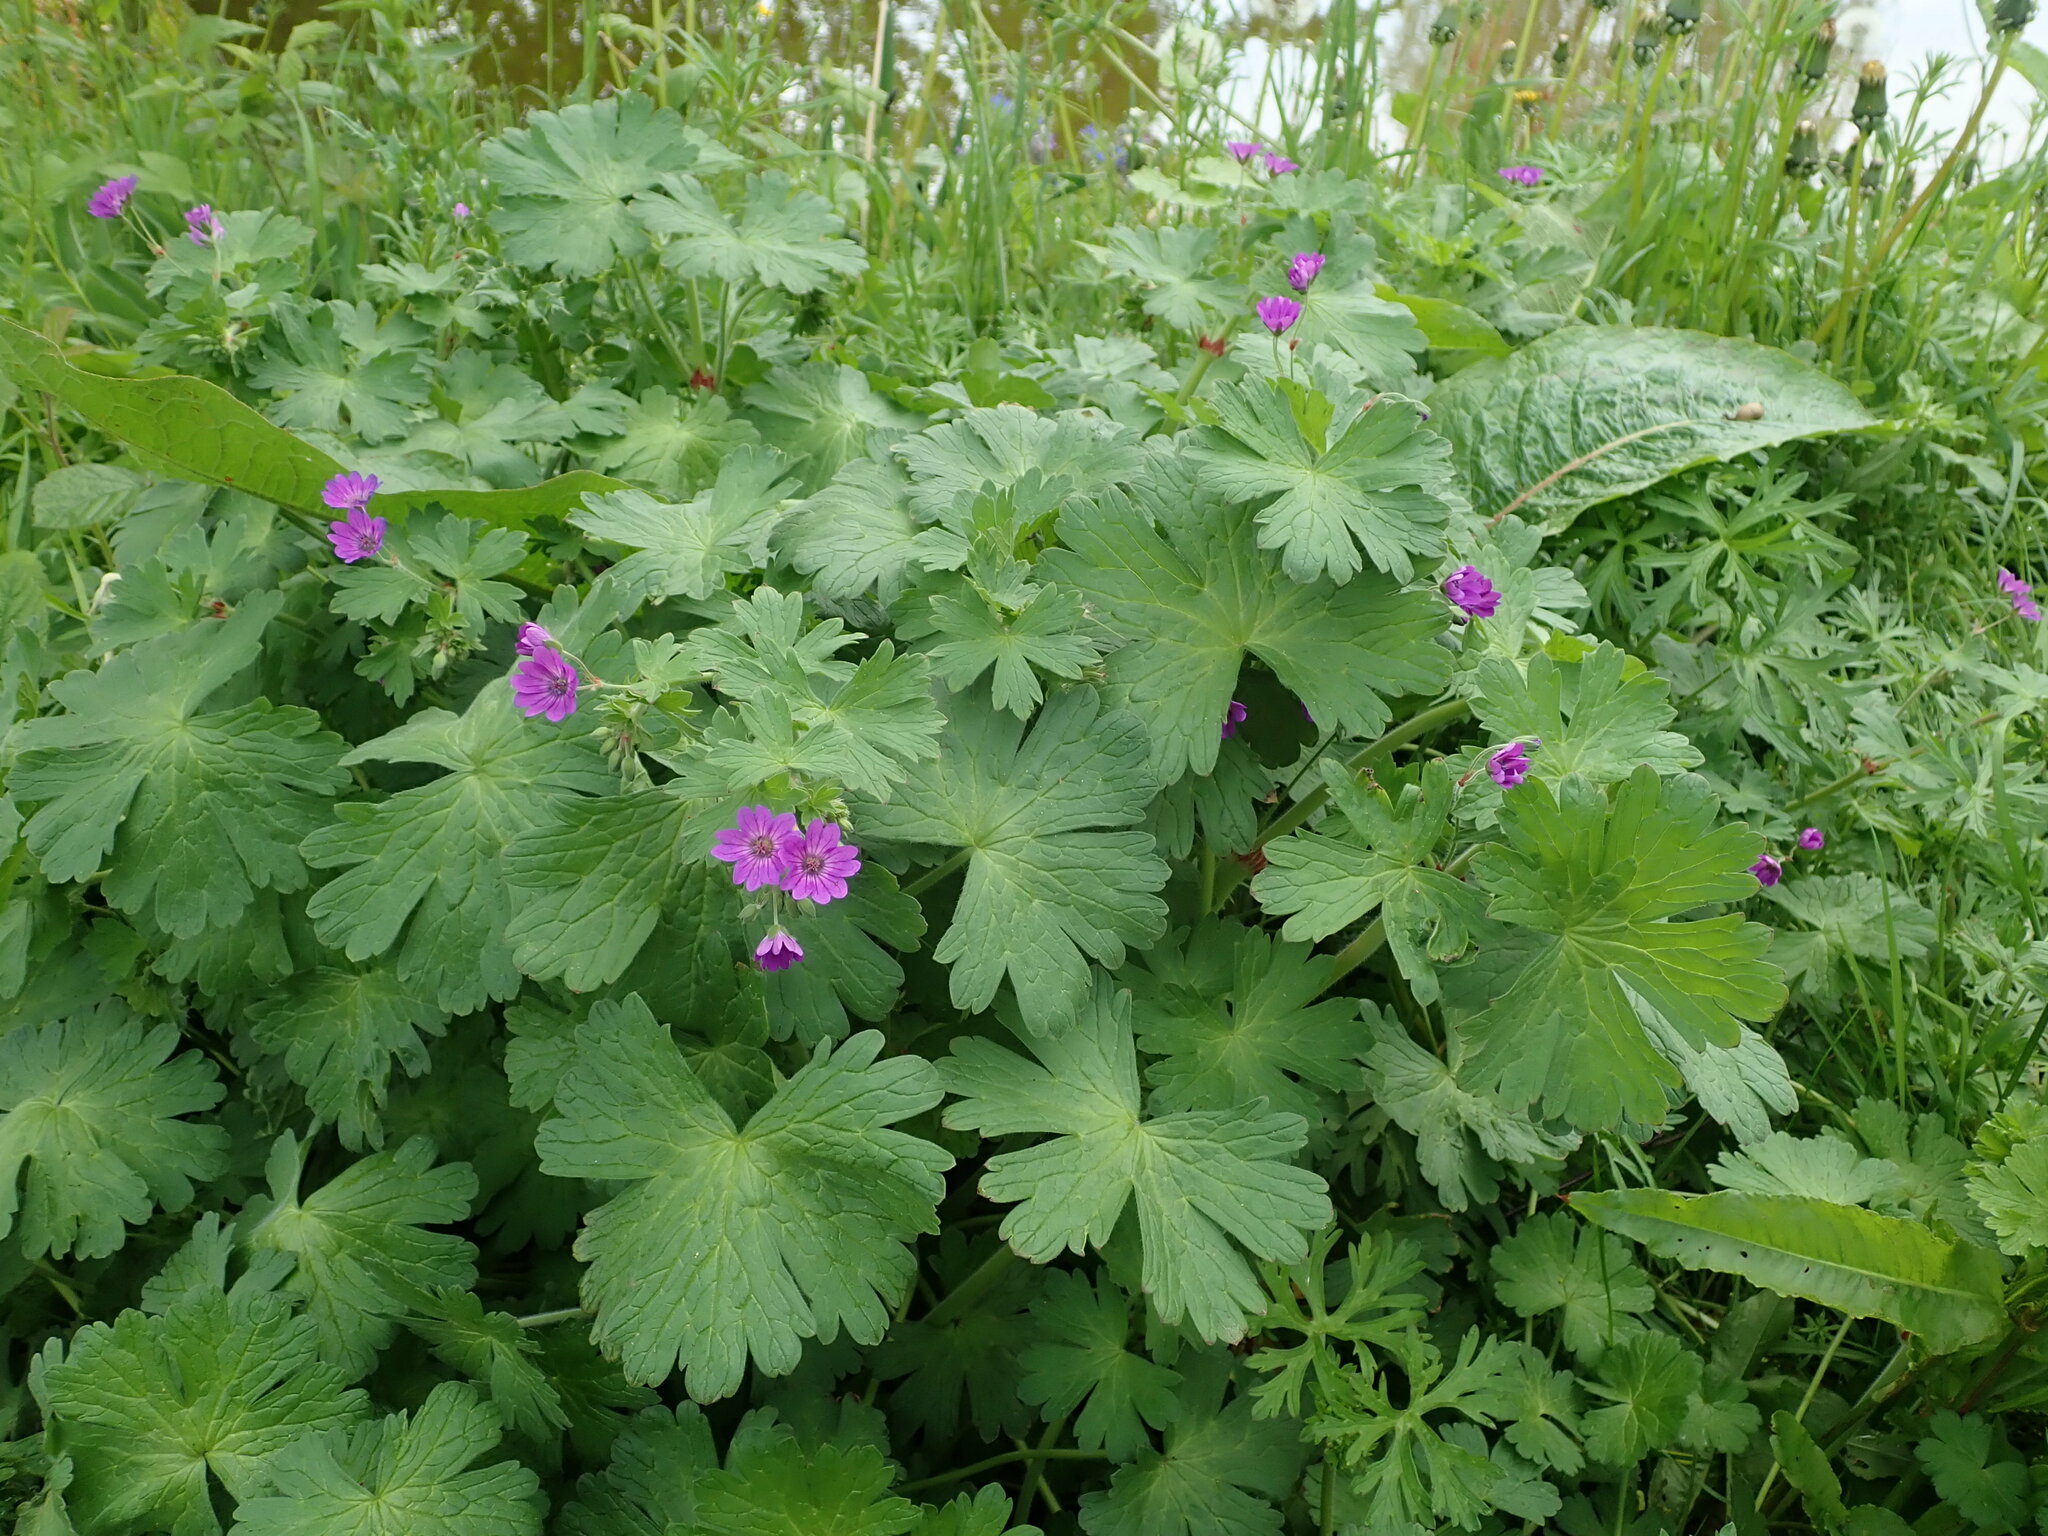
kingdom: Plantae
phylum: Tracheophyta
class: Magnoliopsida
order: Geraniales
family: Geraniaceae
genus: Geranium
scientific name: Geranium pyrenaicum
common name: Hedgerow crane's-bill
